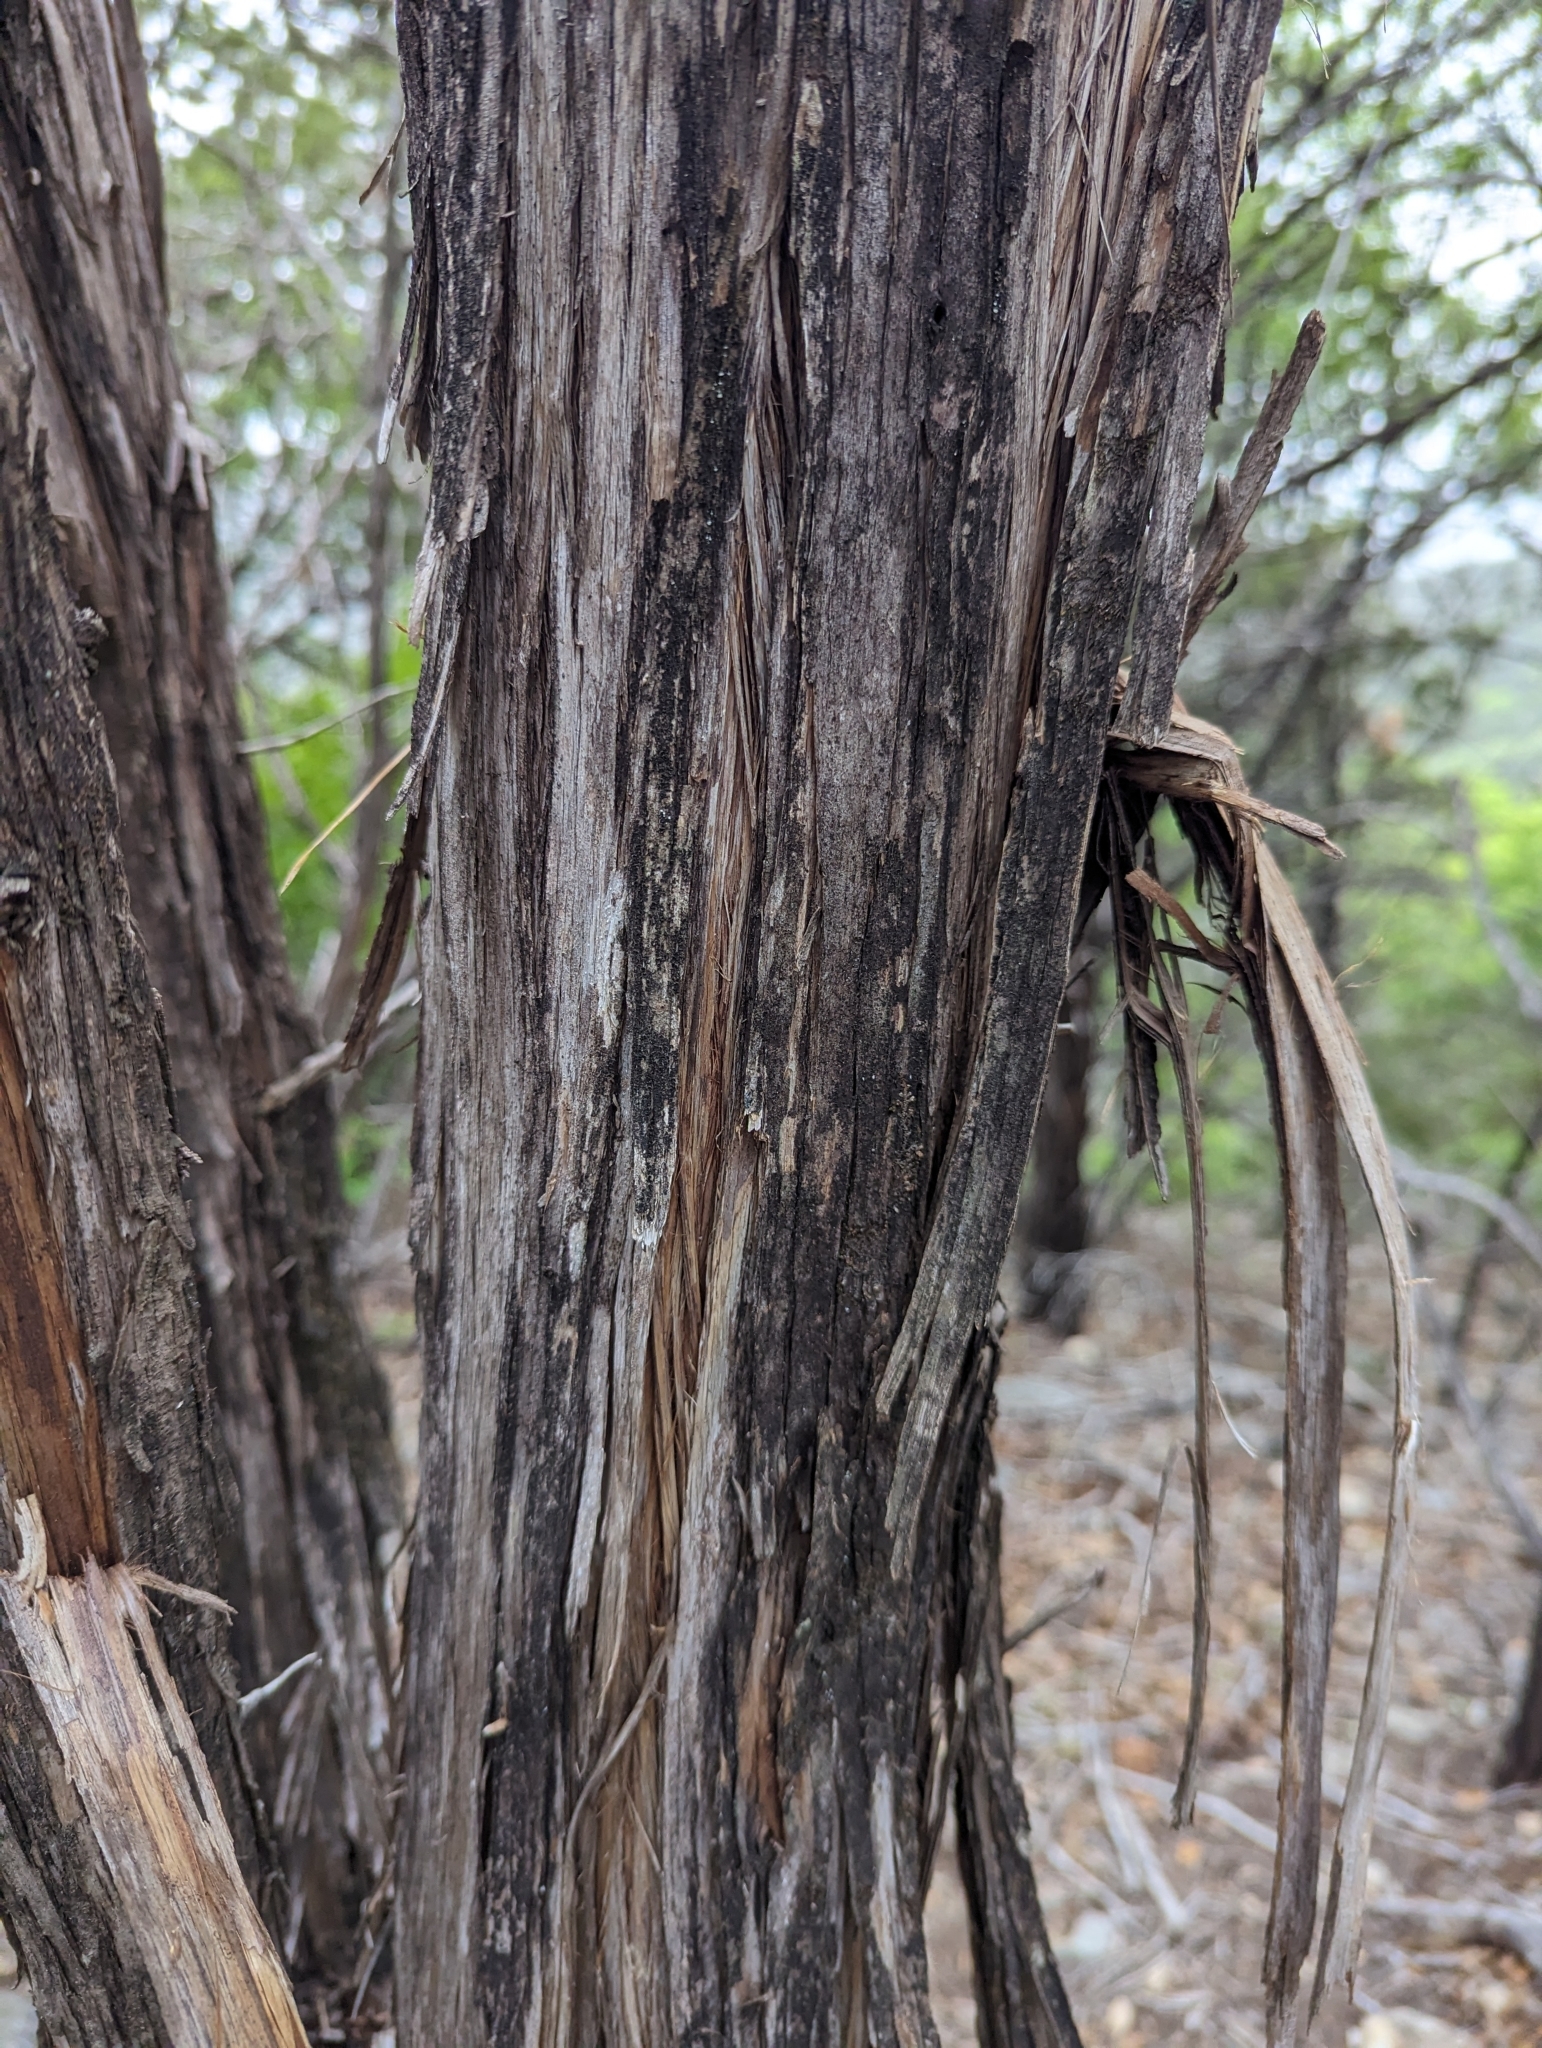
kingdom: Plantae
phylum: Tracheophyta
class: Pinopsida
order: Pinales
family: Cupressaceae
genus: Juniperus
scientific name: Juniperus ashei
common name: Mexican juniper
